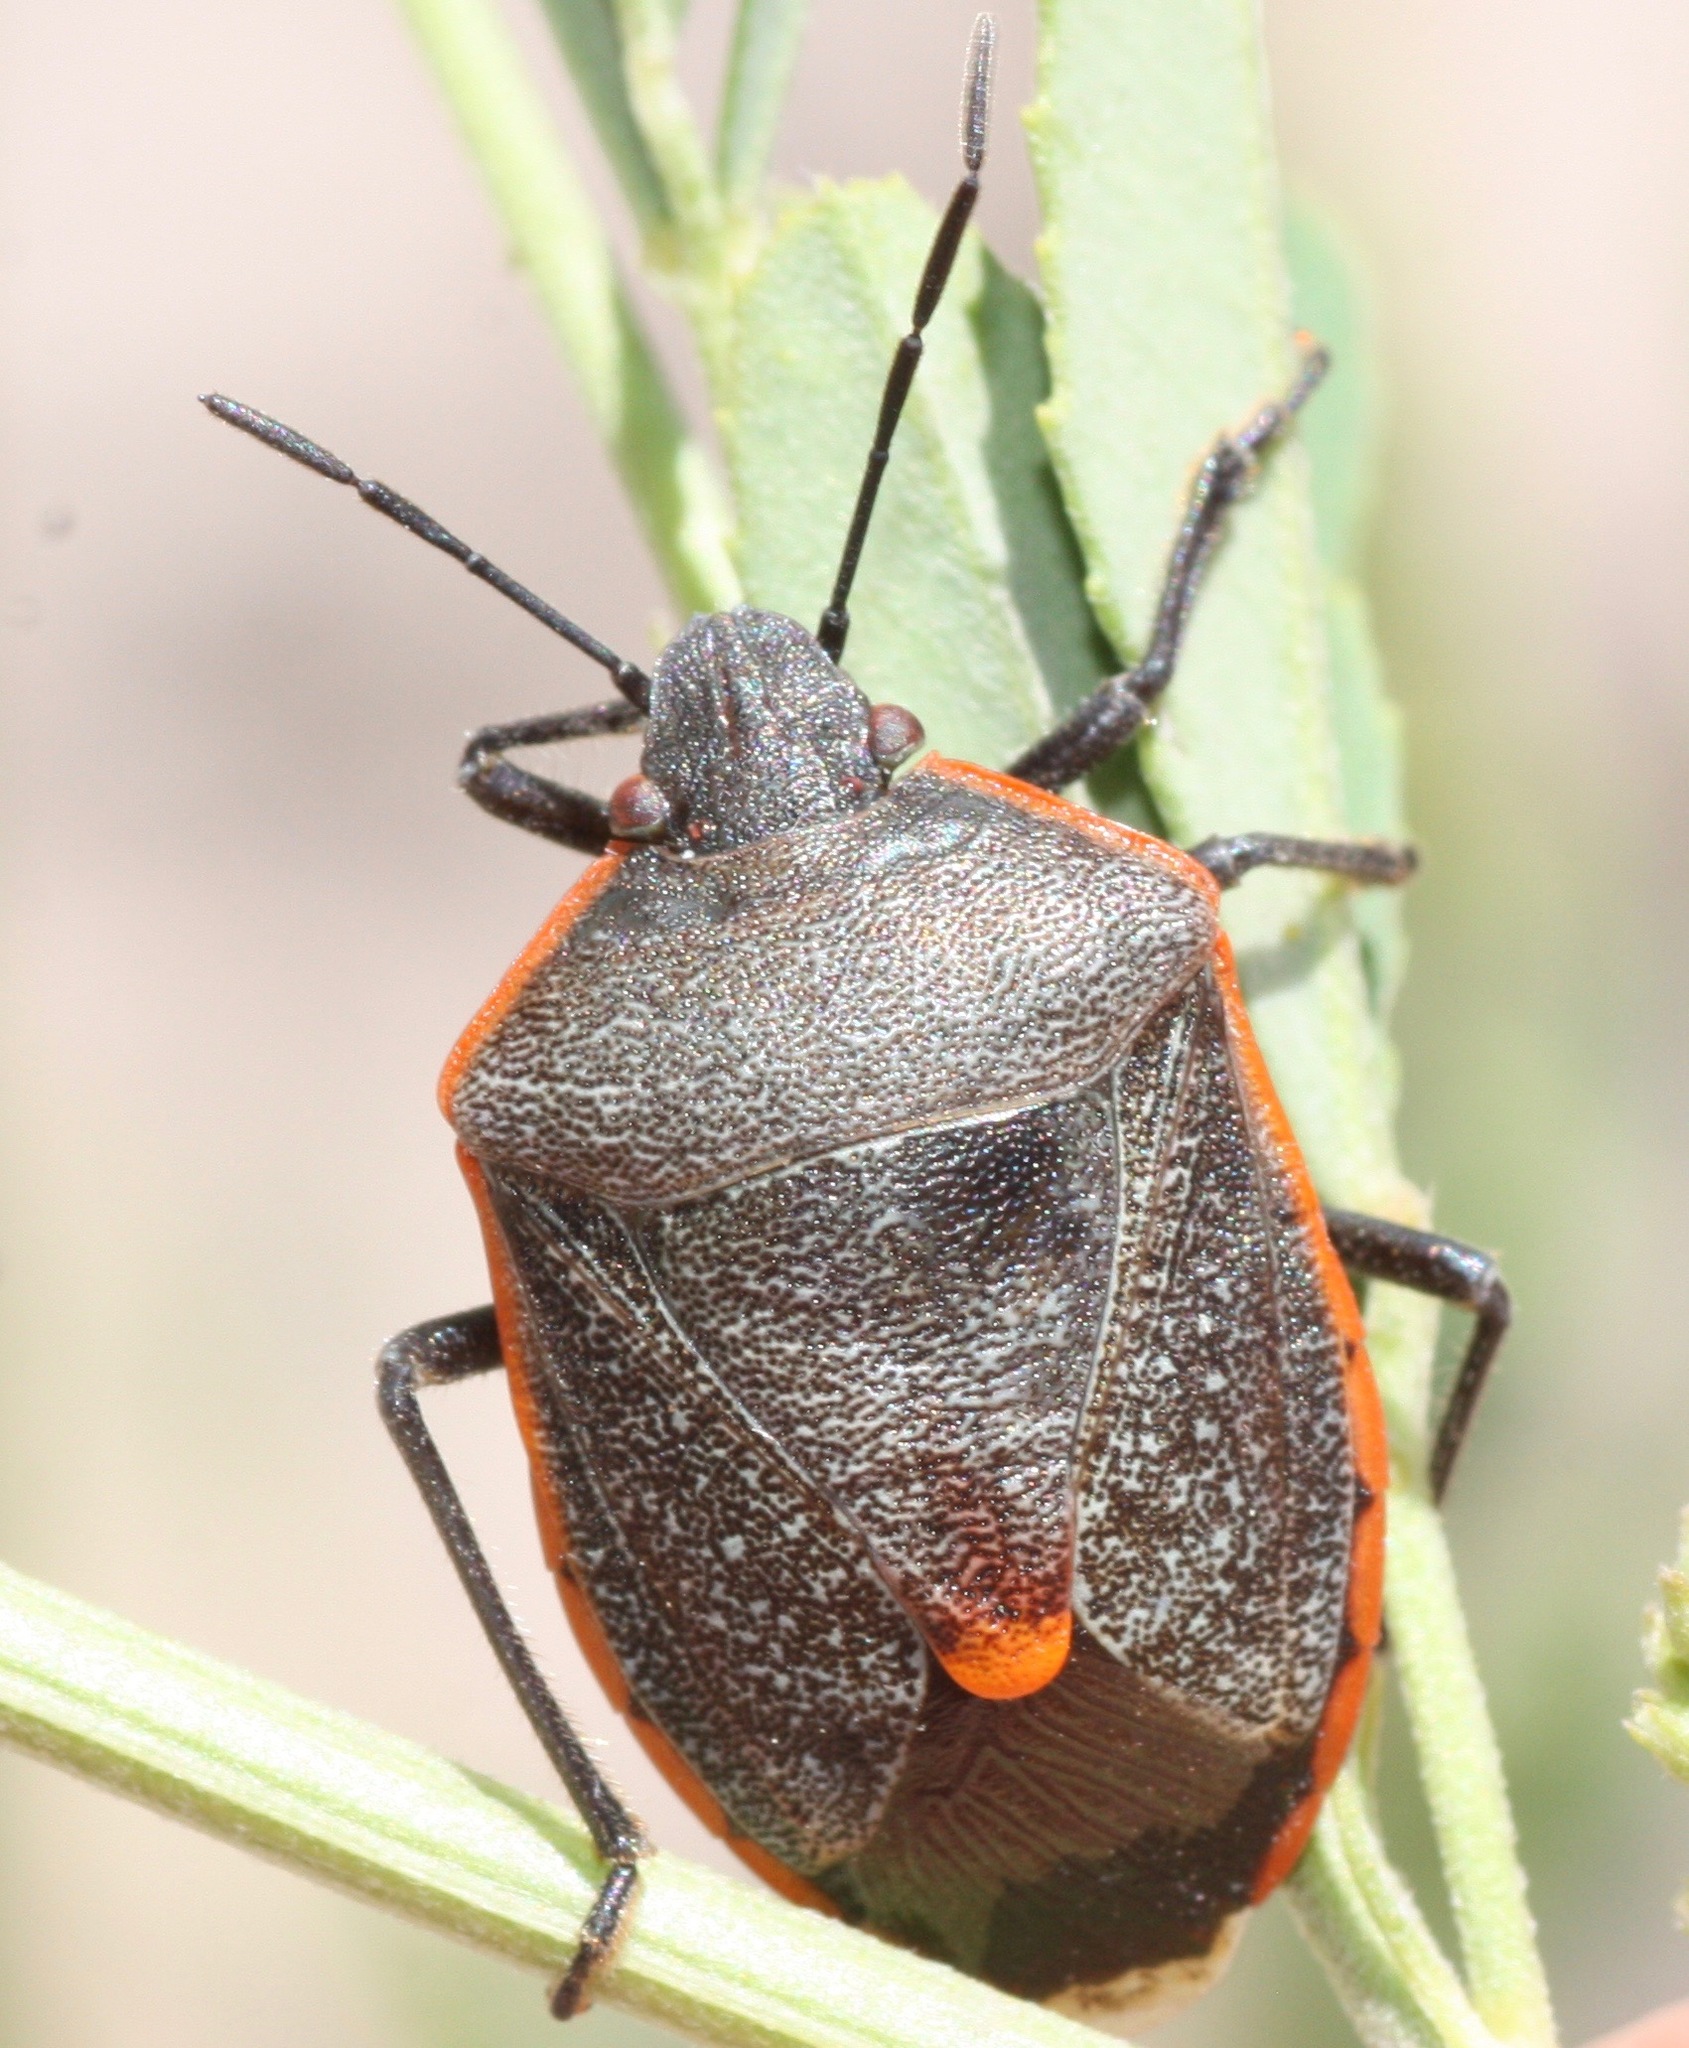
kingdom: Animalia
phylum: Arthropoda
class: Insecta
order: Hemiptera
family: Pentatomidae
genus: Chlorochroa
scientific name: Chlorochroa ligata
